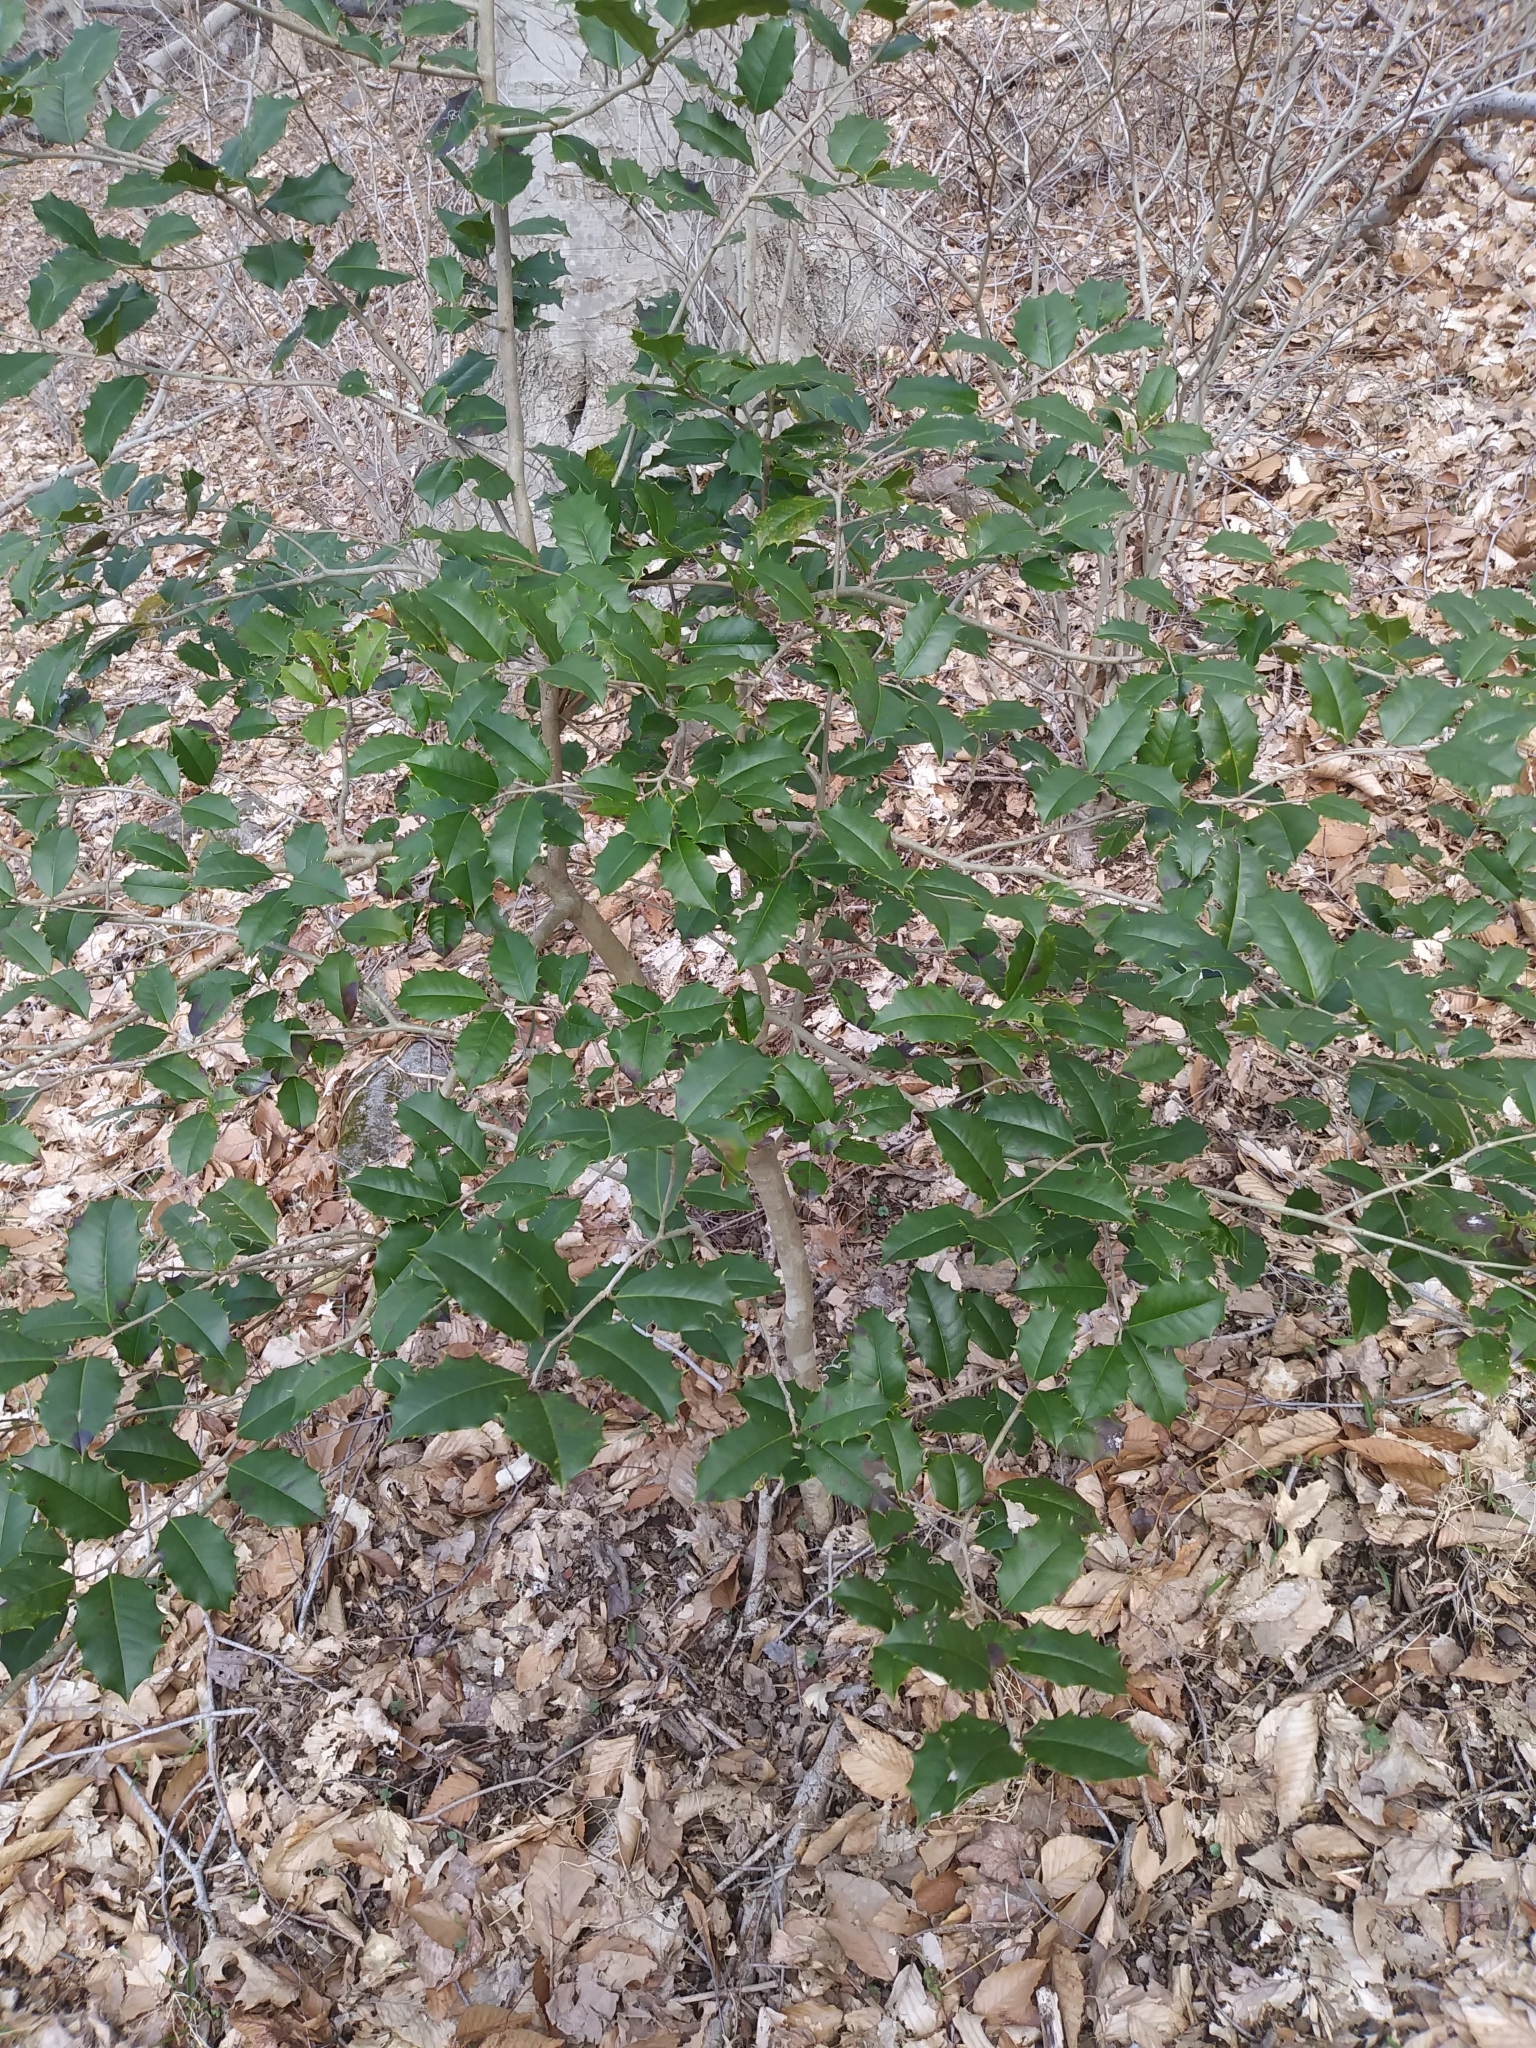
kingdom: Plantae
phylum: Tracheophyta
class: Magnoliopsida
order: Aquifoliales
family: Aquifoliaceae
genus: Ilex
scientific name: Ilex opaca
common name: American holly
